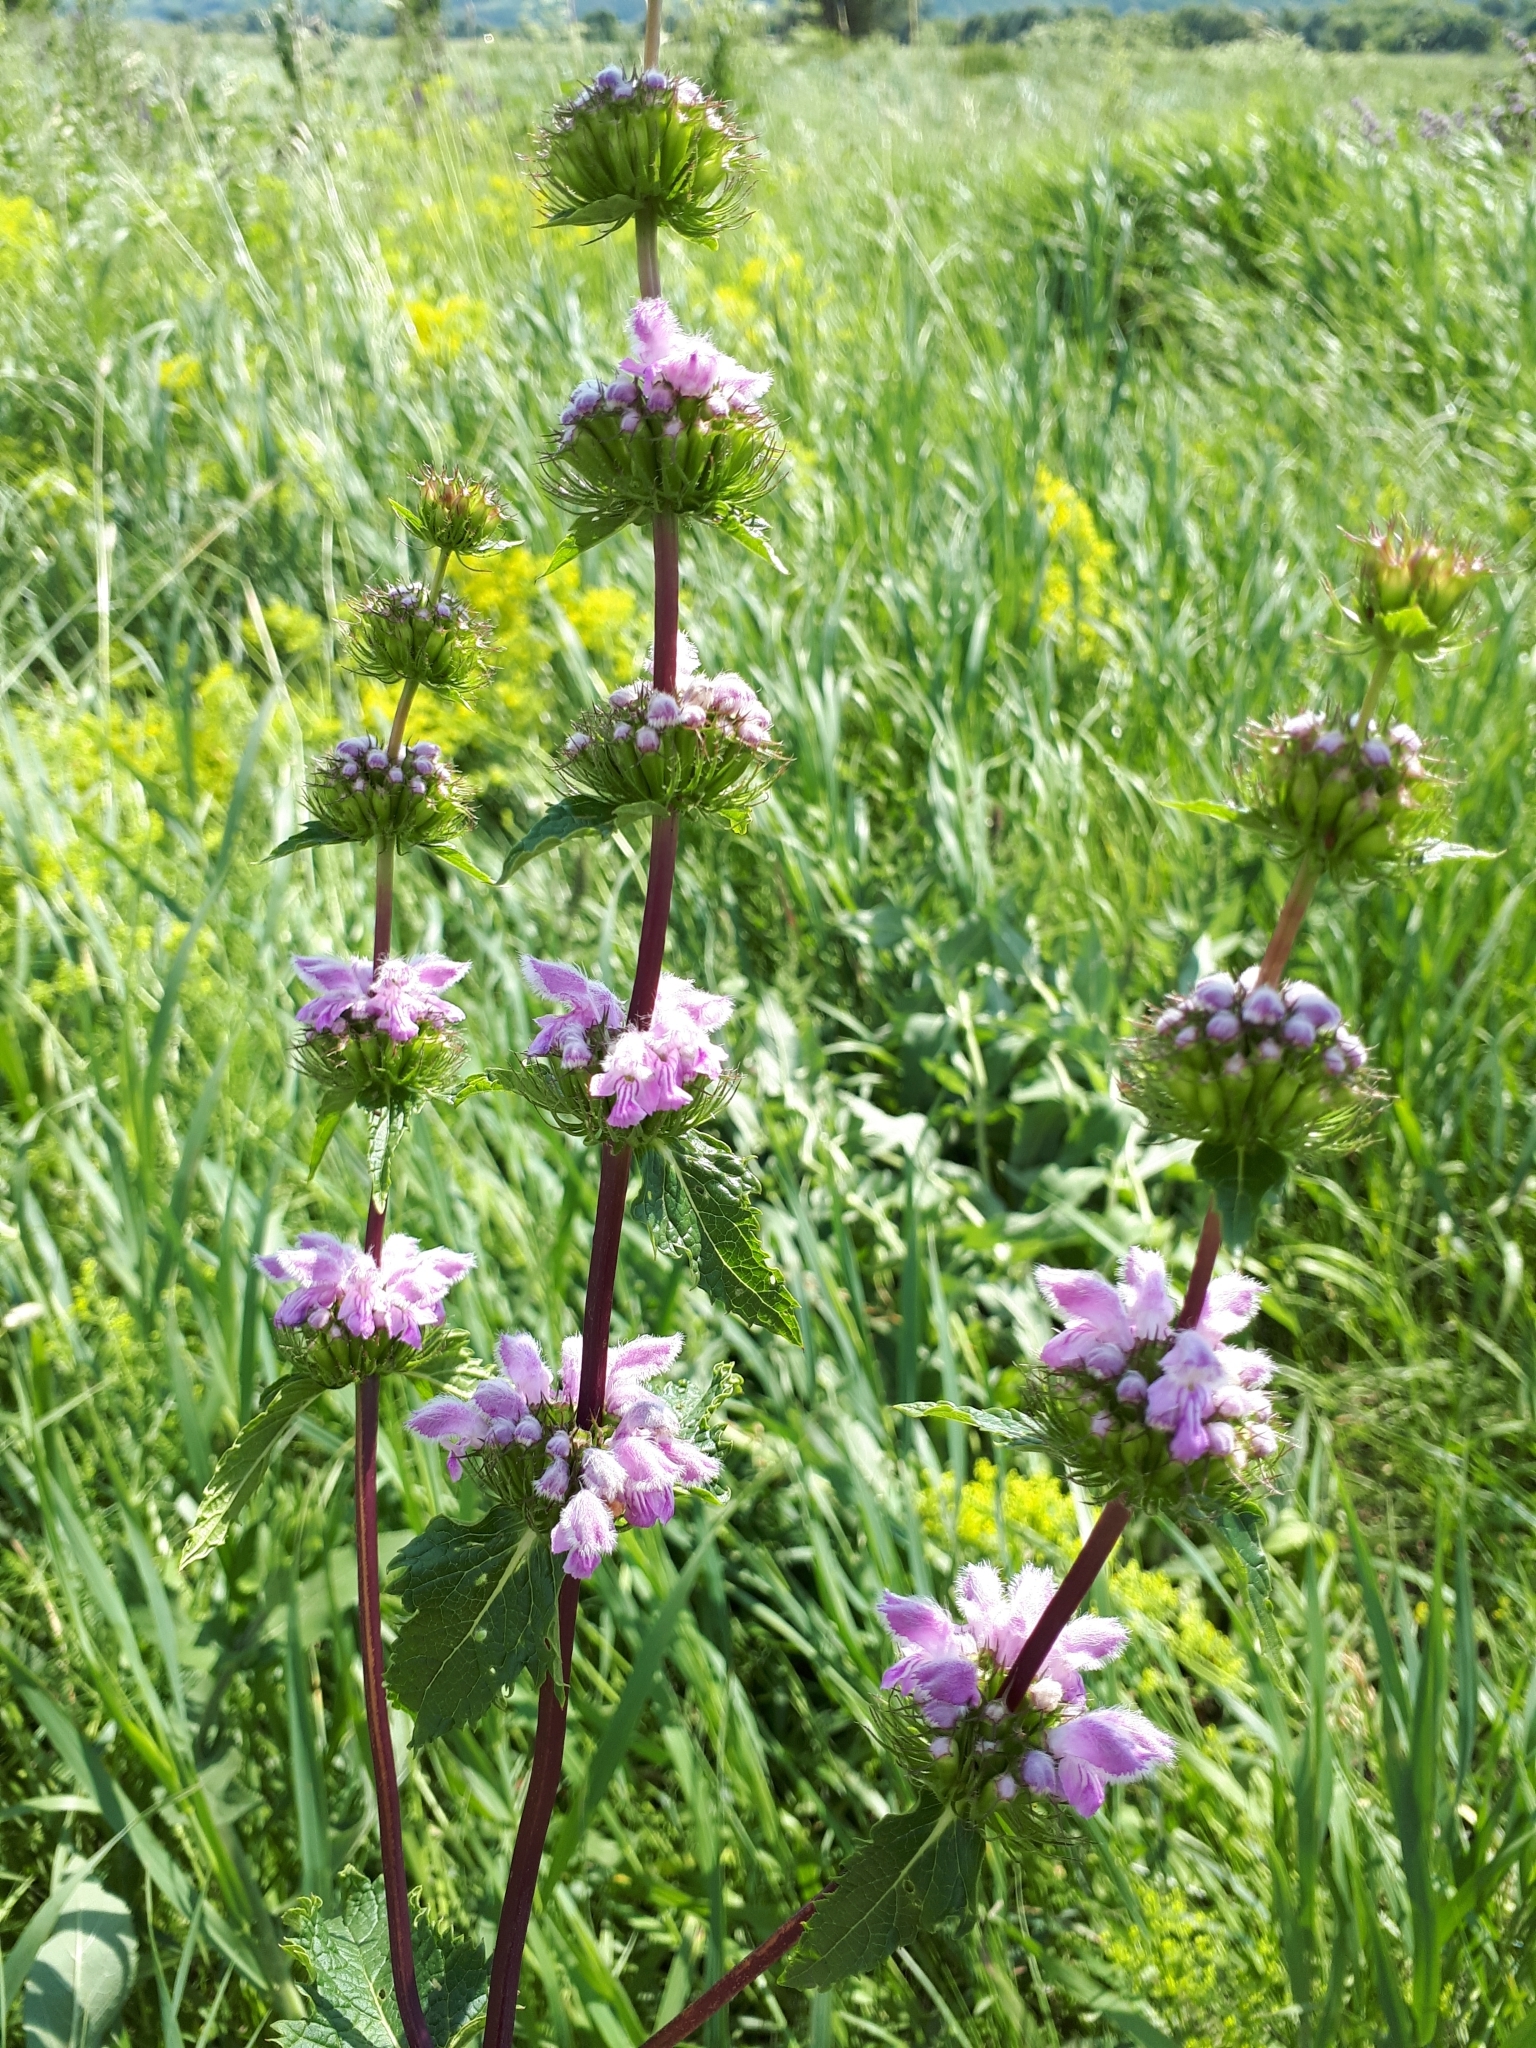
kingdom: Plantae
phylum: Tracheophyta
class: Magnoliopsida
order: Lamiales
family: Lamiaceae
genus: Phlomoides
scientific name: Phlomoides tuberosa
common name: Tuberous jerusalem sage
